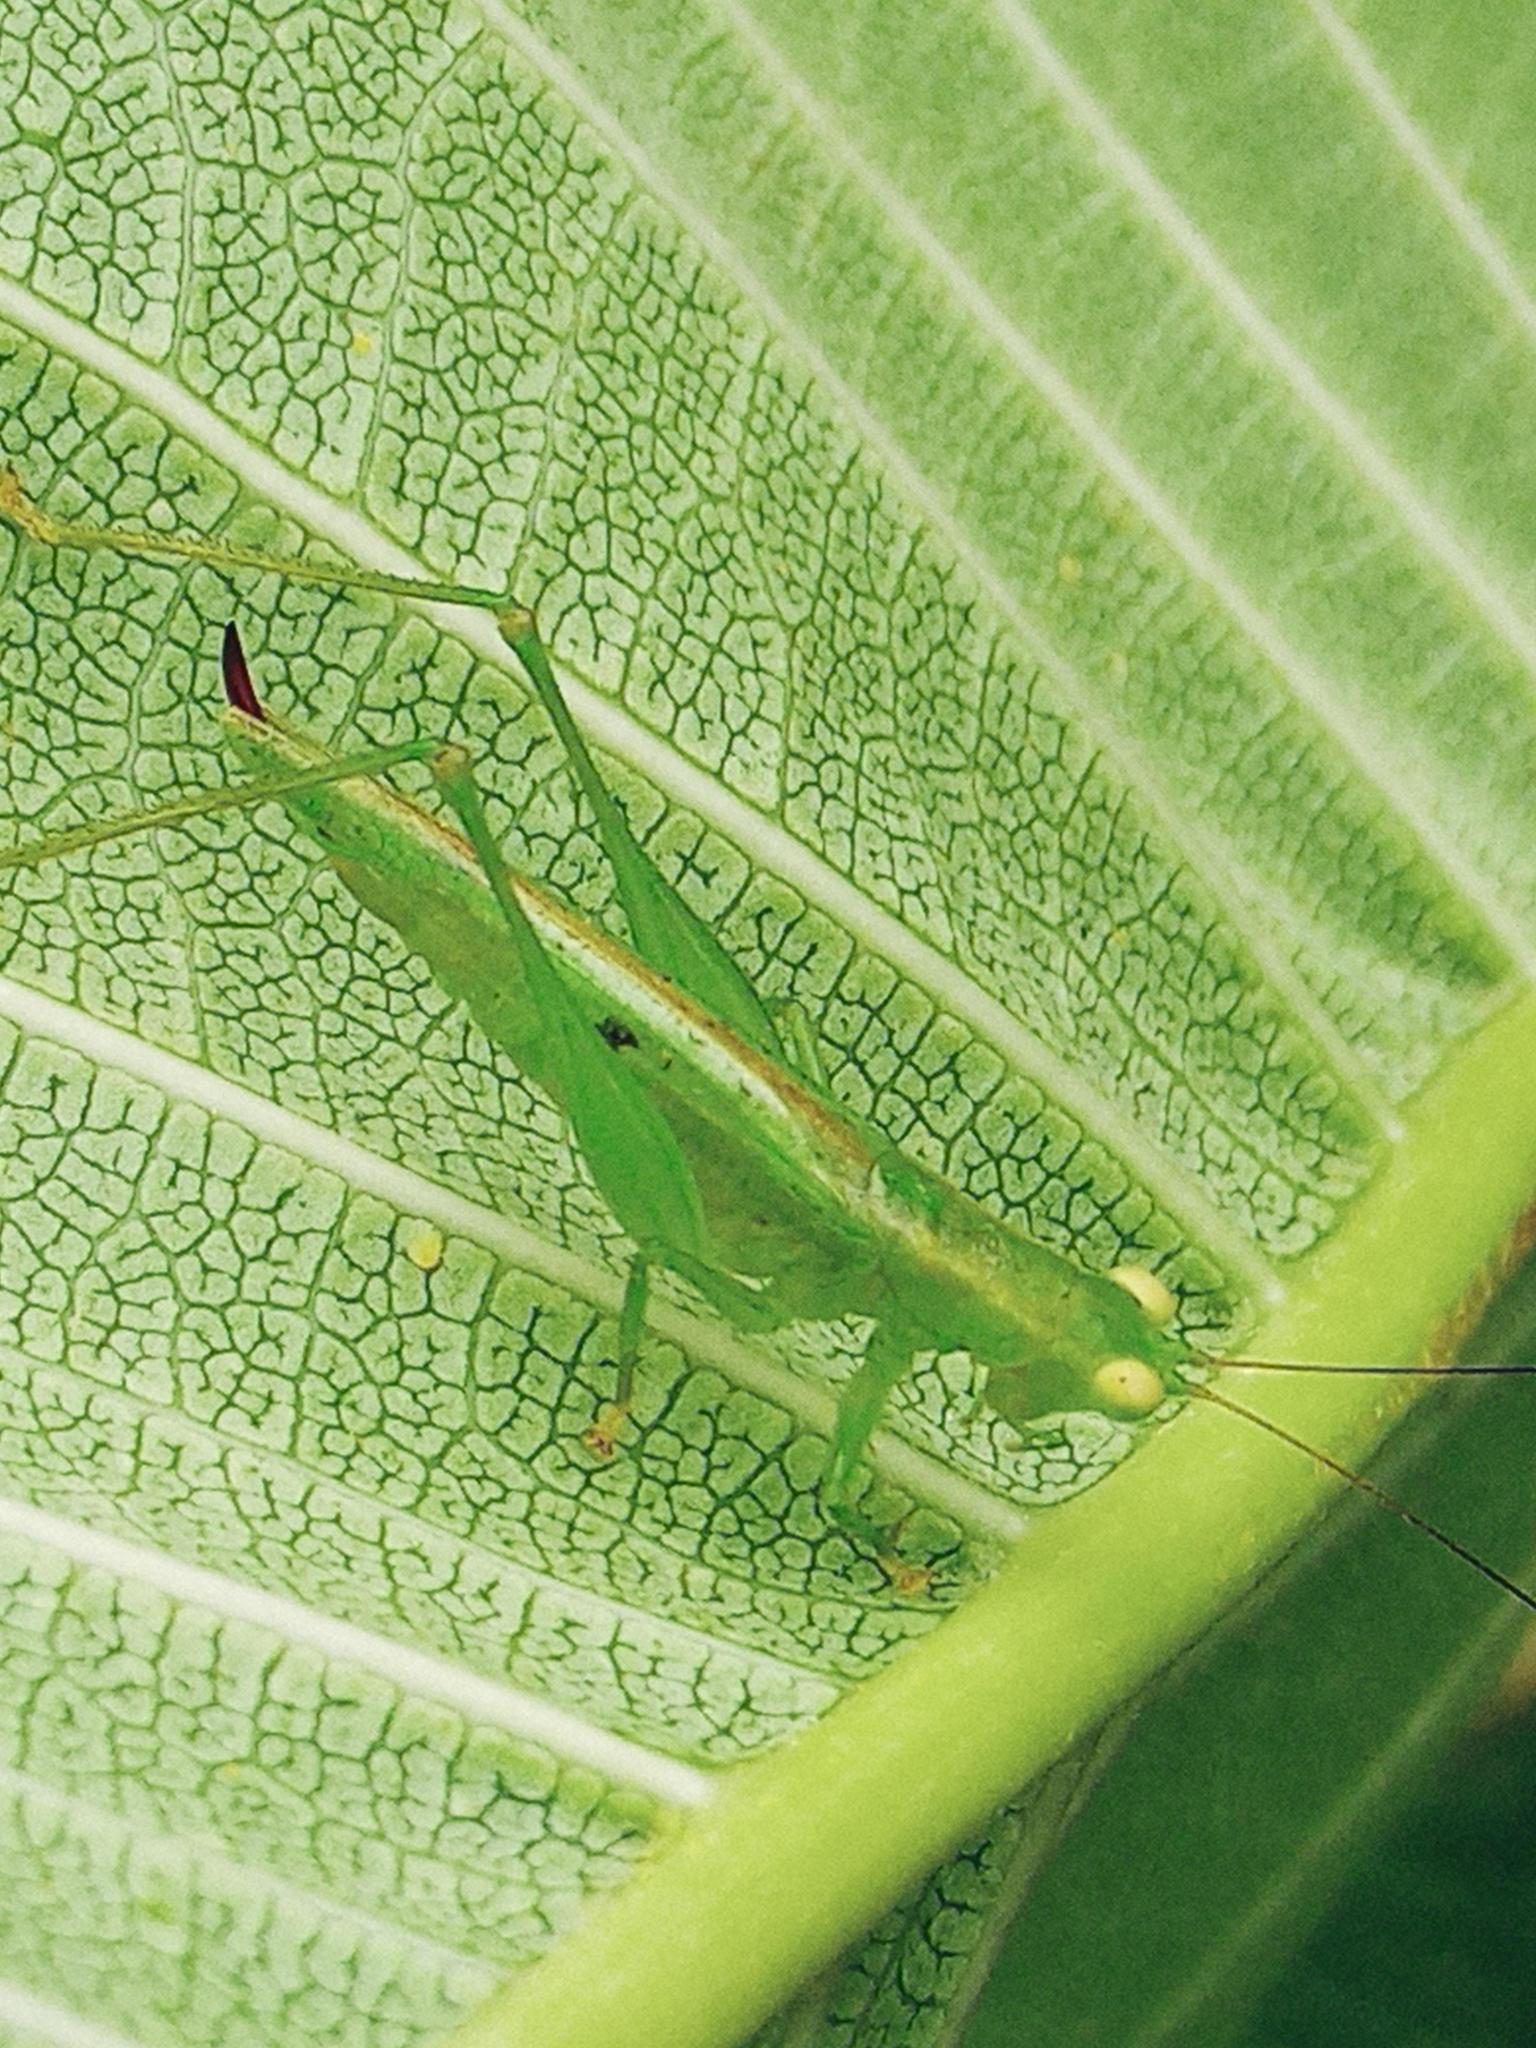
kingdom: Animalia
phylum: Arthropoda
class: Insecta
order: Orthoptera
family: Tettigoniidae
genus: Austrophlugis
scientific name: Austrophlugis debaari
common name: Debaar's swayer
